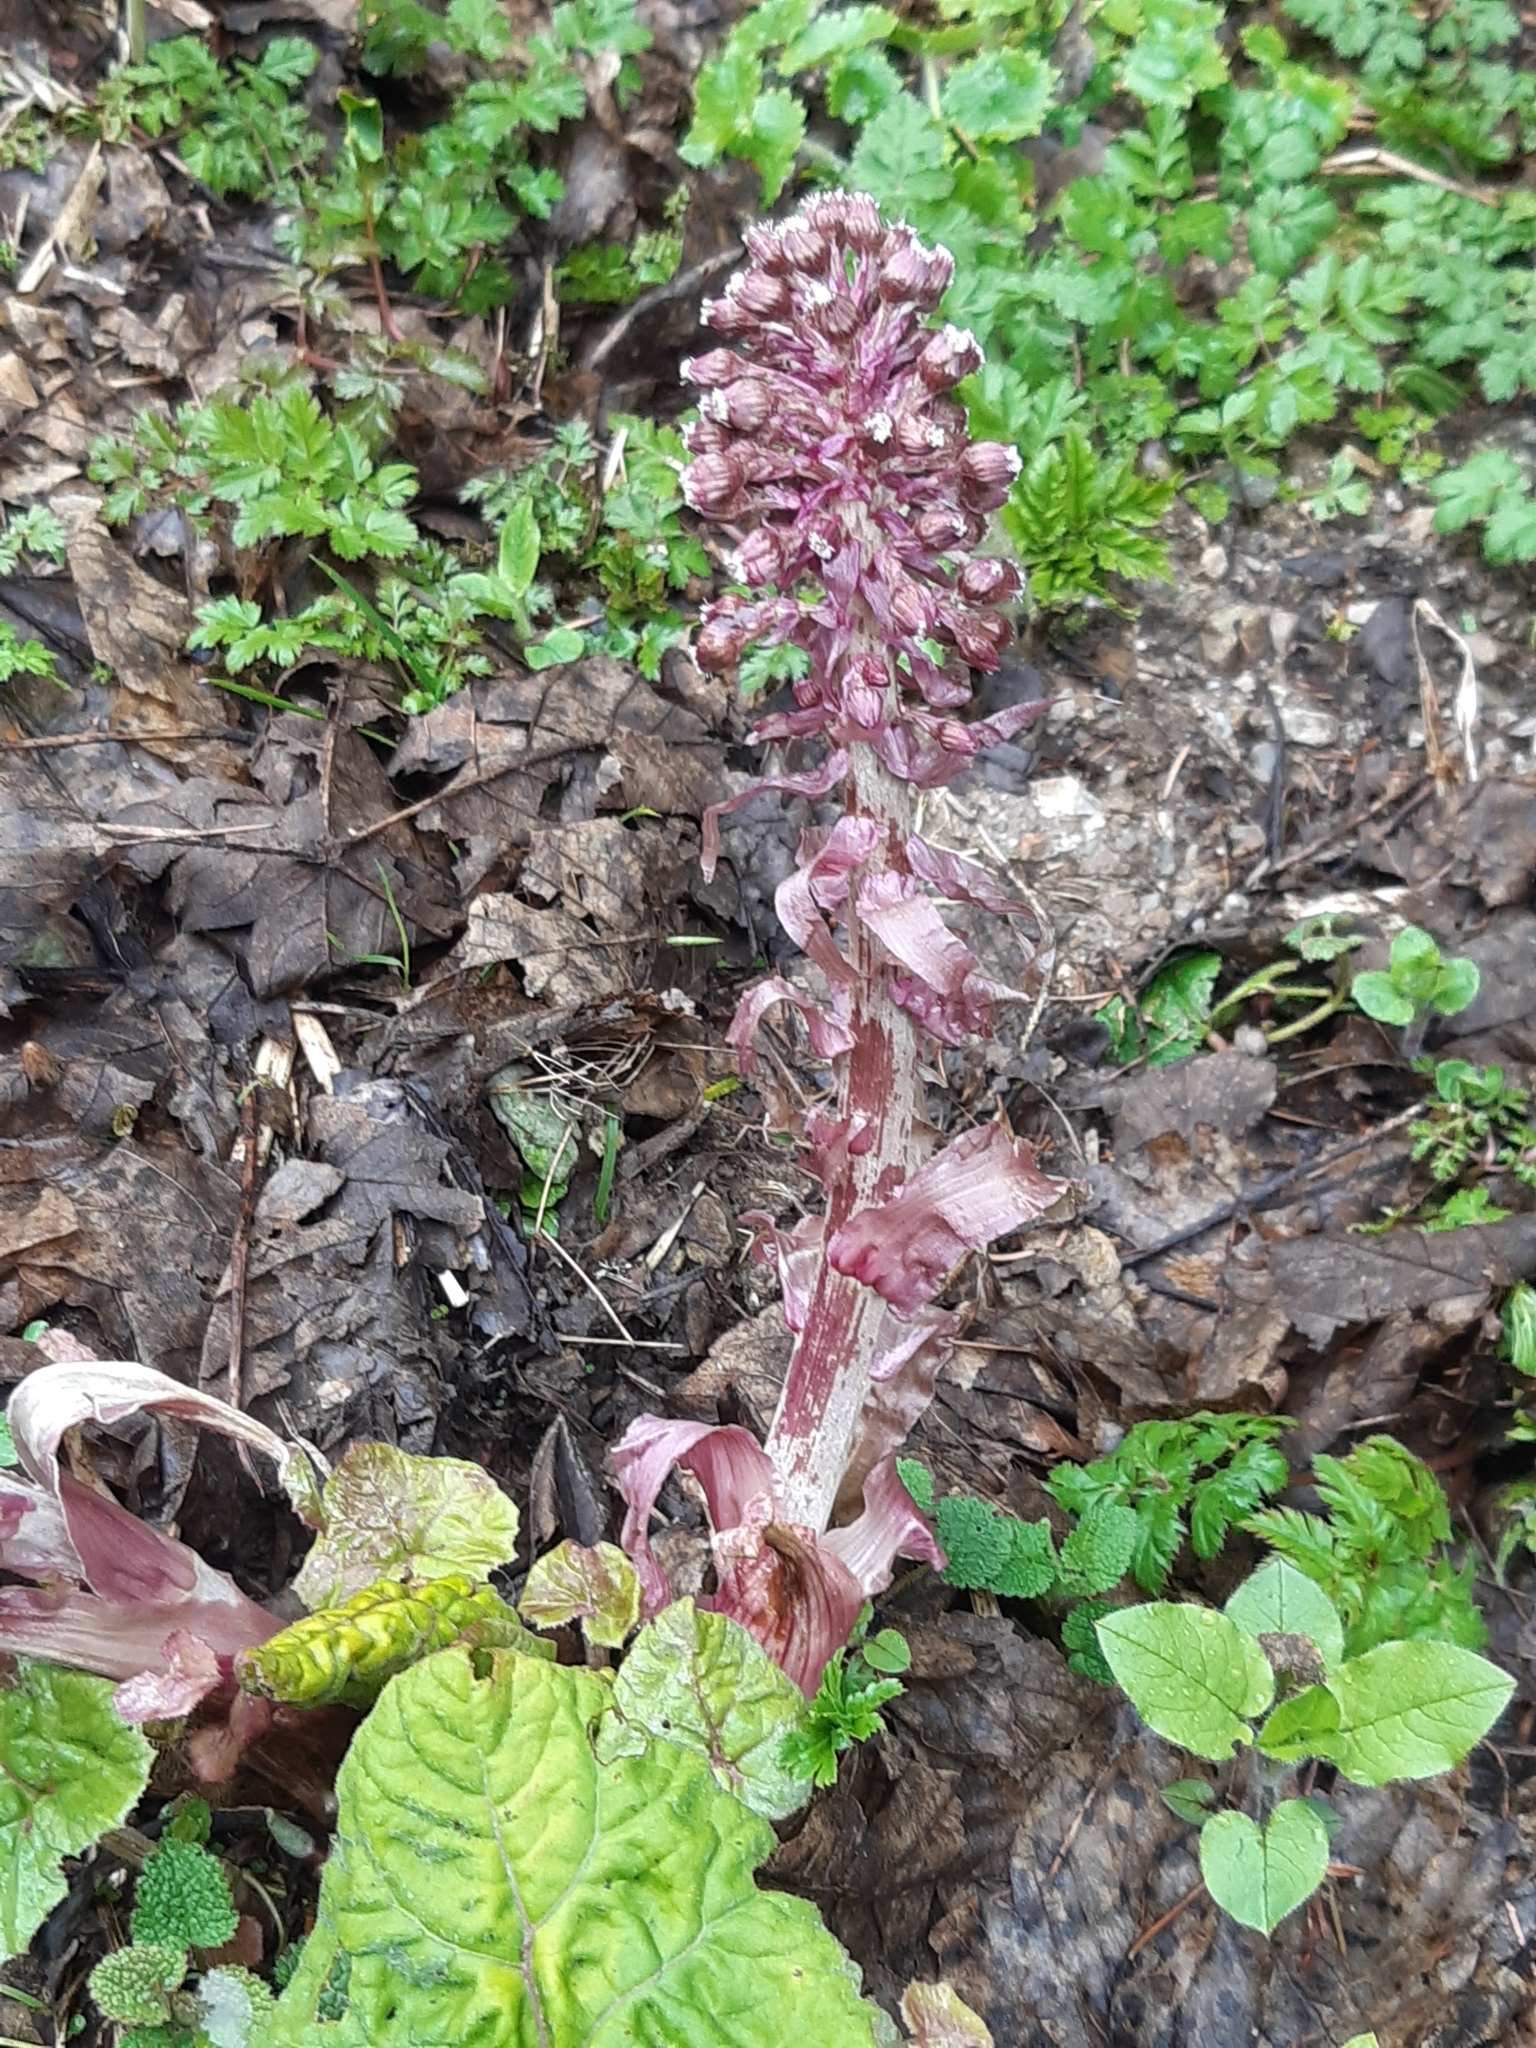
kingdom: Plantae
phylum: Tracheophyta
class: Magnoliopsida
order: Asterales
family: Asteraceae
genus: Petasites
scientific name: Petasites hybridus
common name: Butterbur
